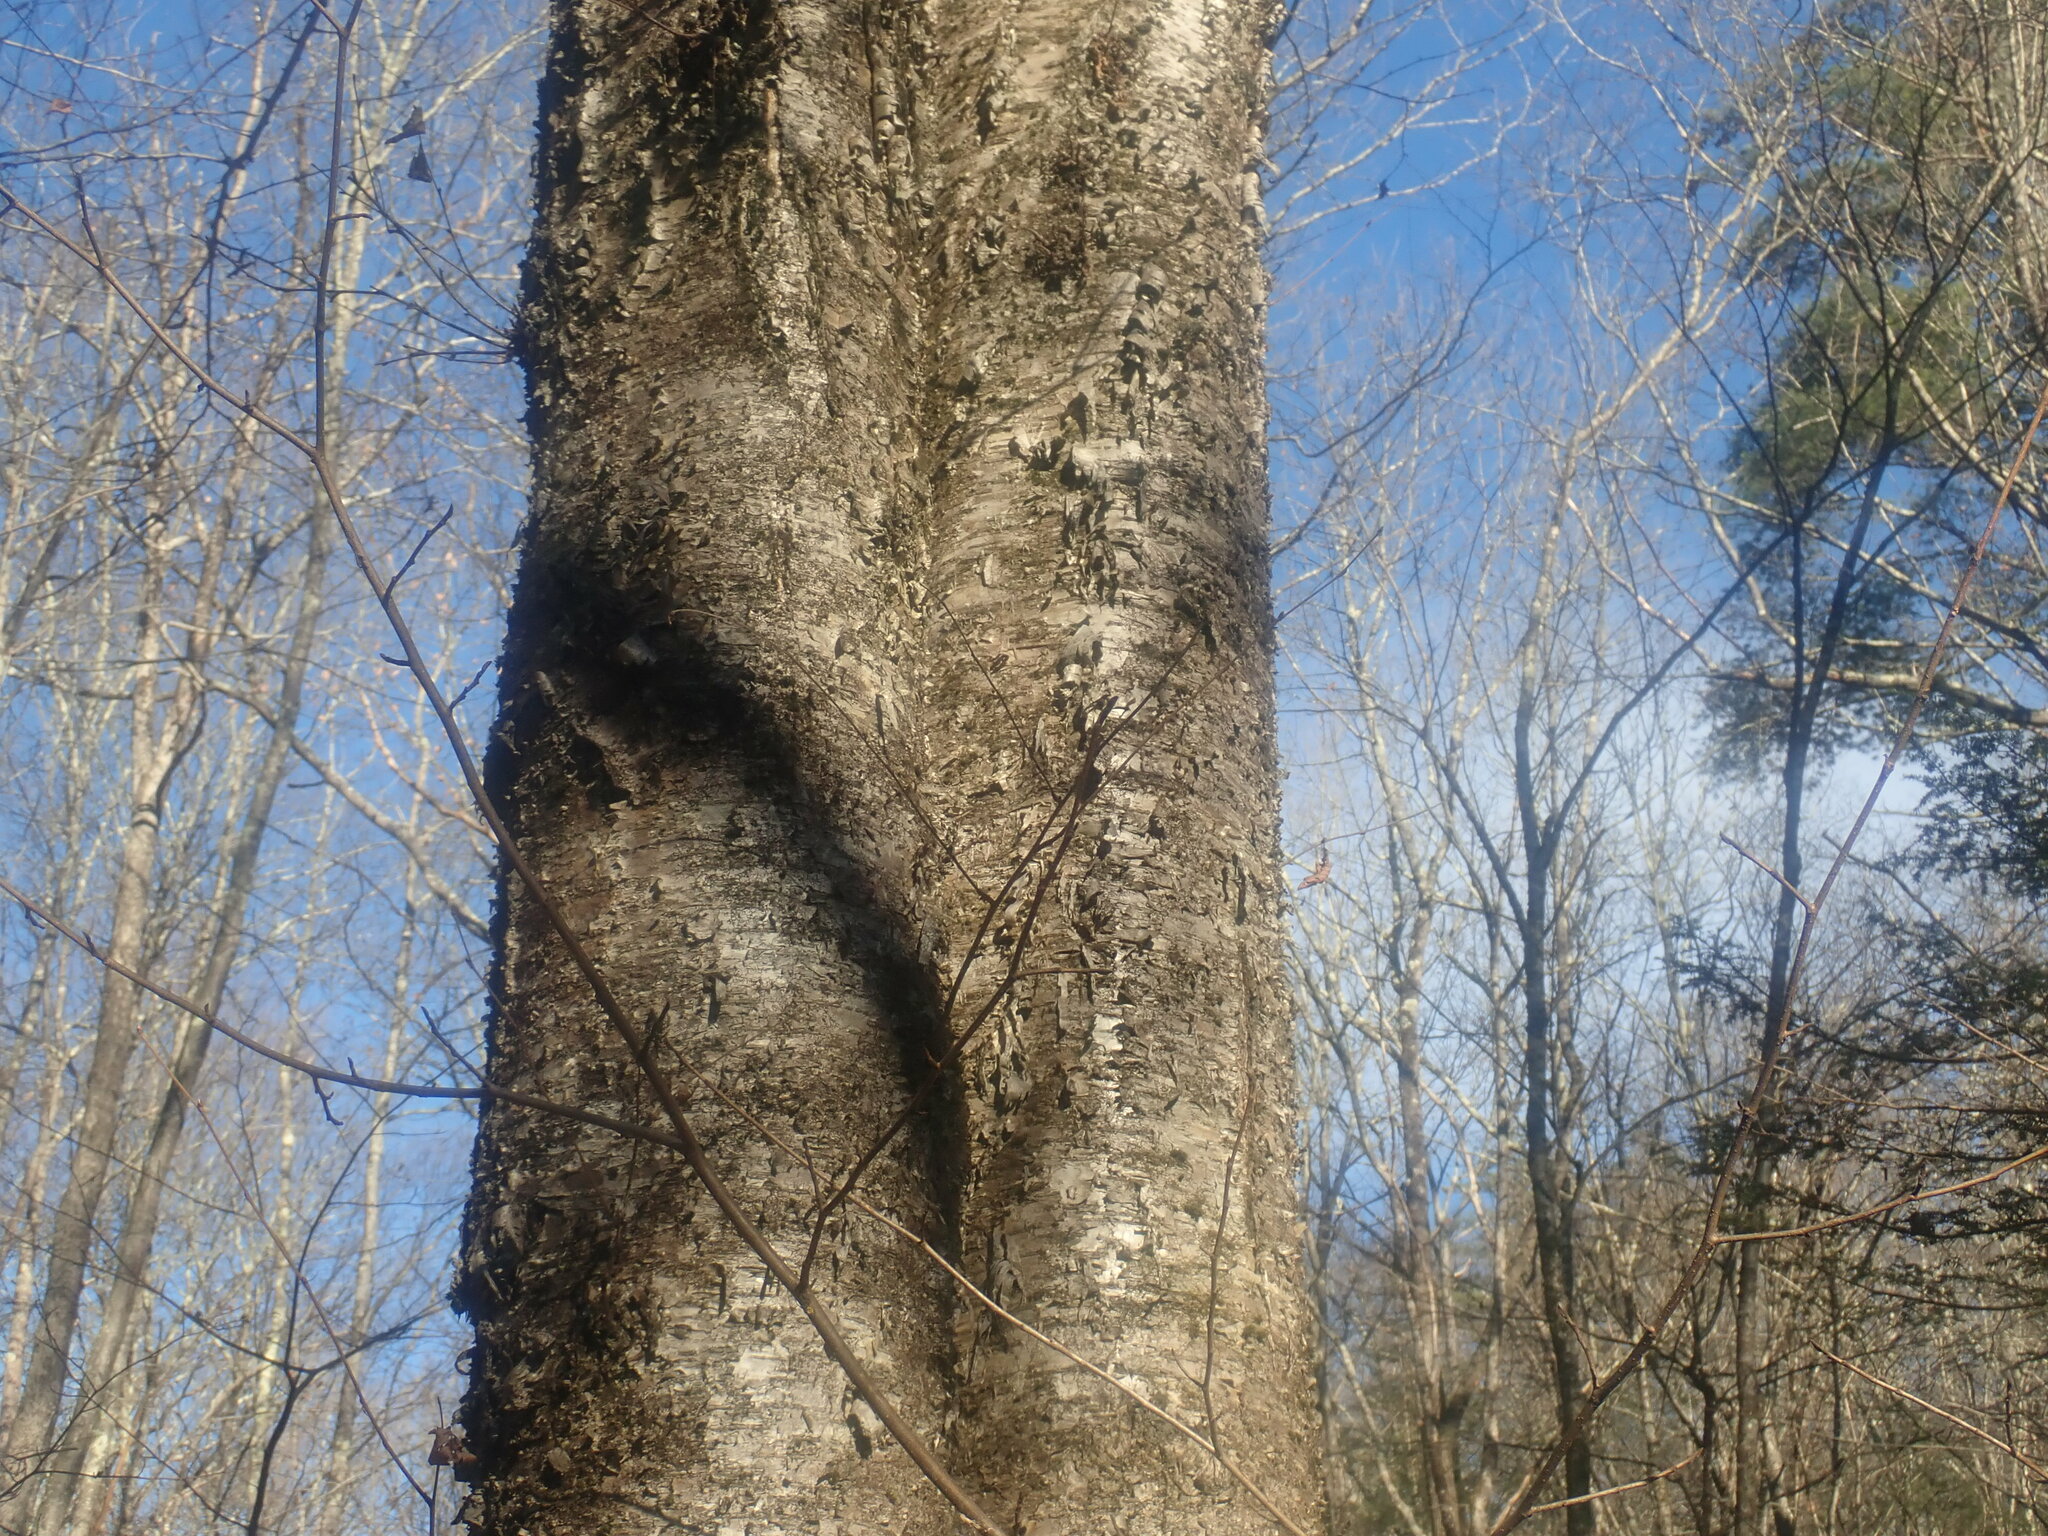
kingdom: Plantae
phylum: Tracheophyta
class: Magnoliopsida
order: Fagales
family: Betulaceae
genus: Betula
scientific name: Betula alleghaniensis
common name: Yellow birch
